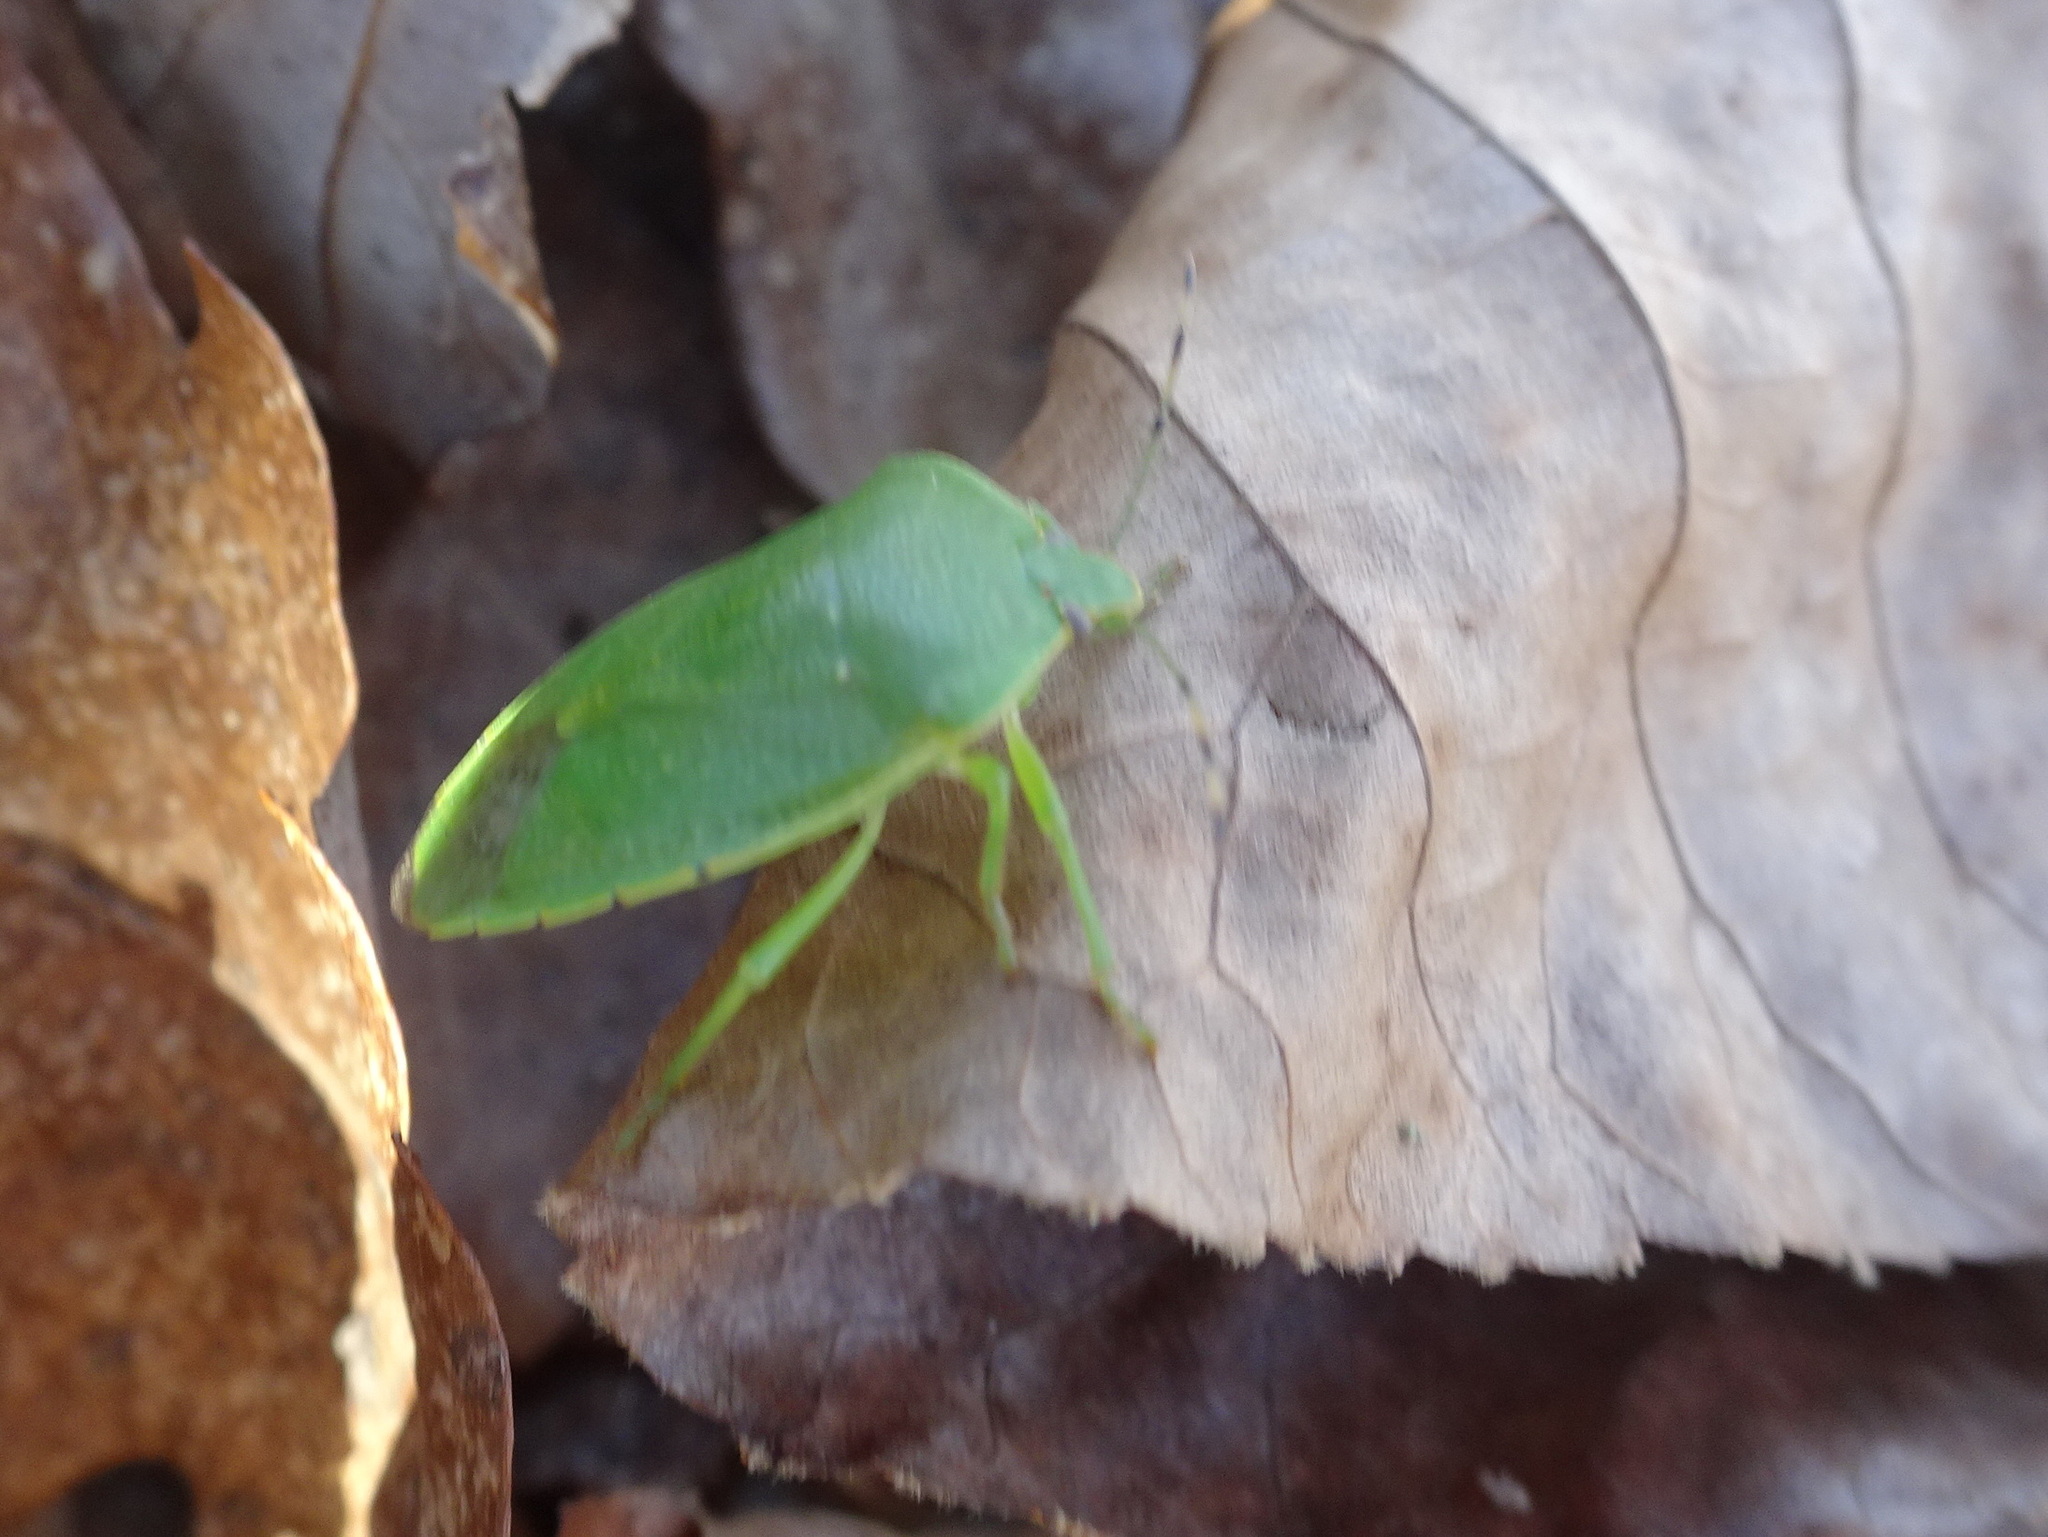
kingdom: Animalia
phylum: Arthropoda
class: Insecta
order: Hemiptera
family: Pentatomidae
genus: Chinavia
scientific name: Chinavia hilaris
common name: Green stink bug
